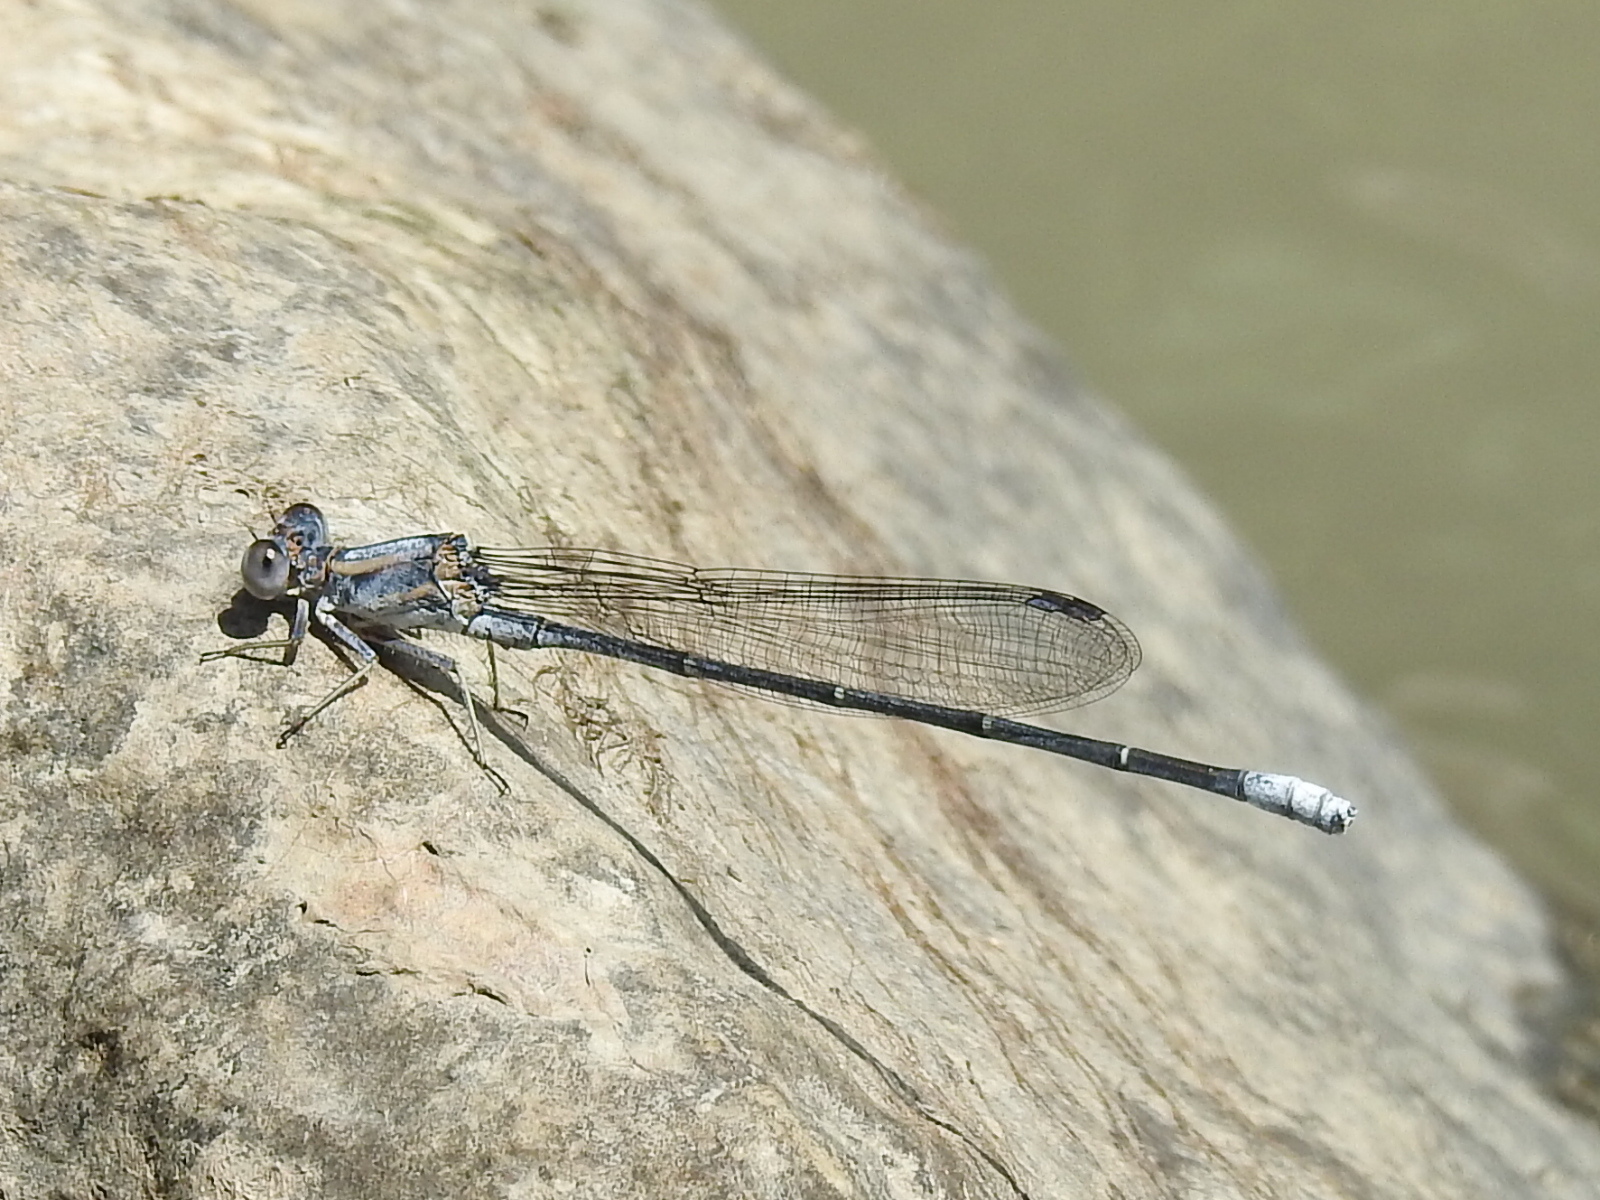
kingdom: Animalia
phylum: Arthropoda
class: Insecta
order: Odonata
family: Coenagrionidae
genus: Argia
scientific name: Argia moesta
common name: Powdered dancer
